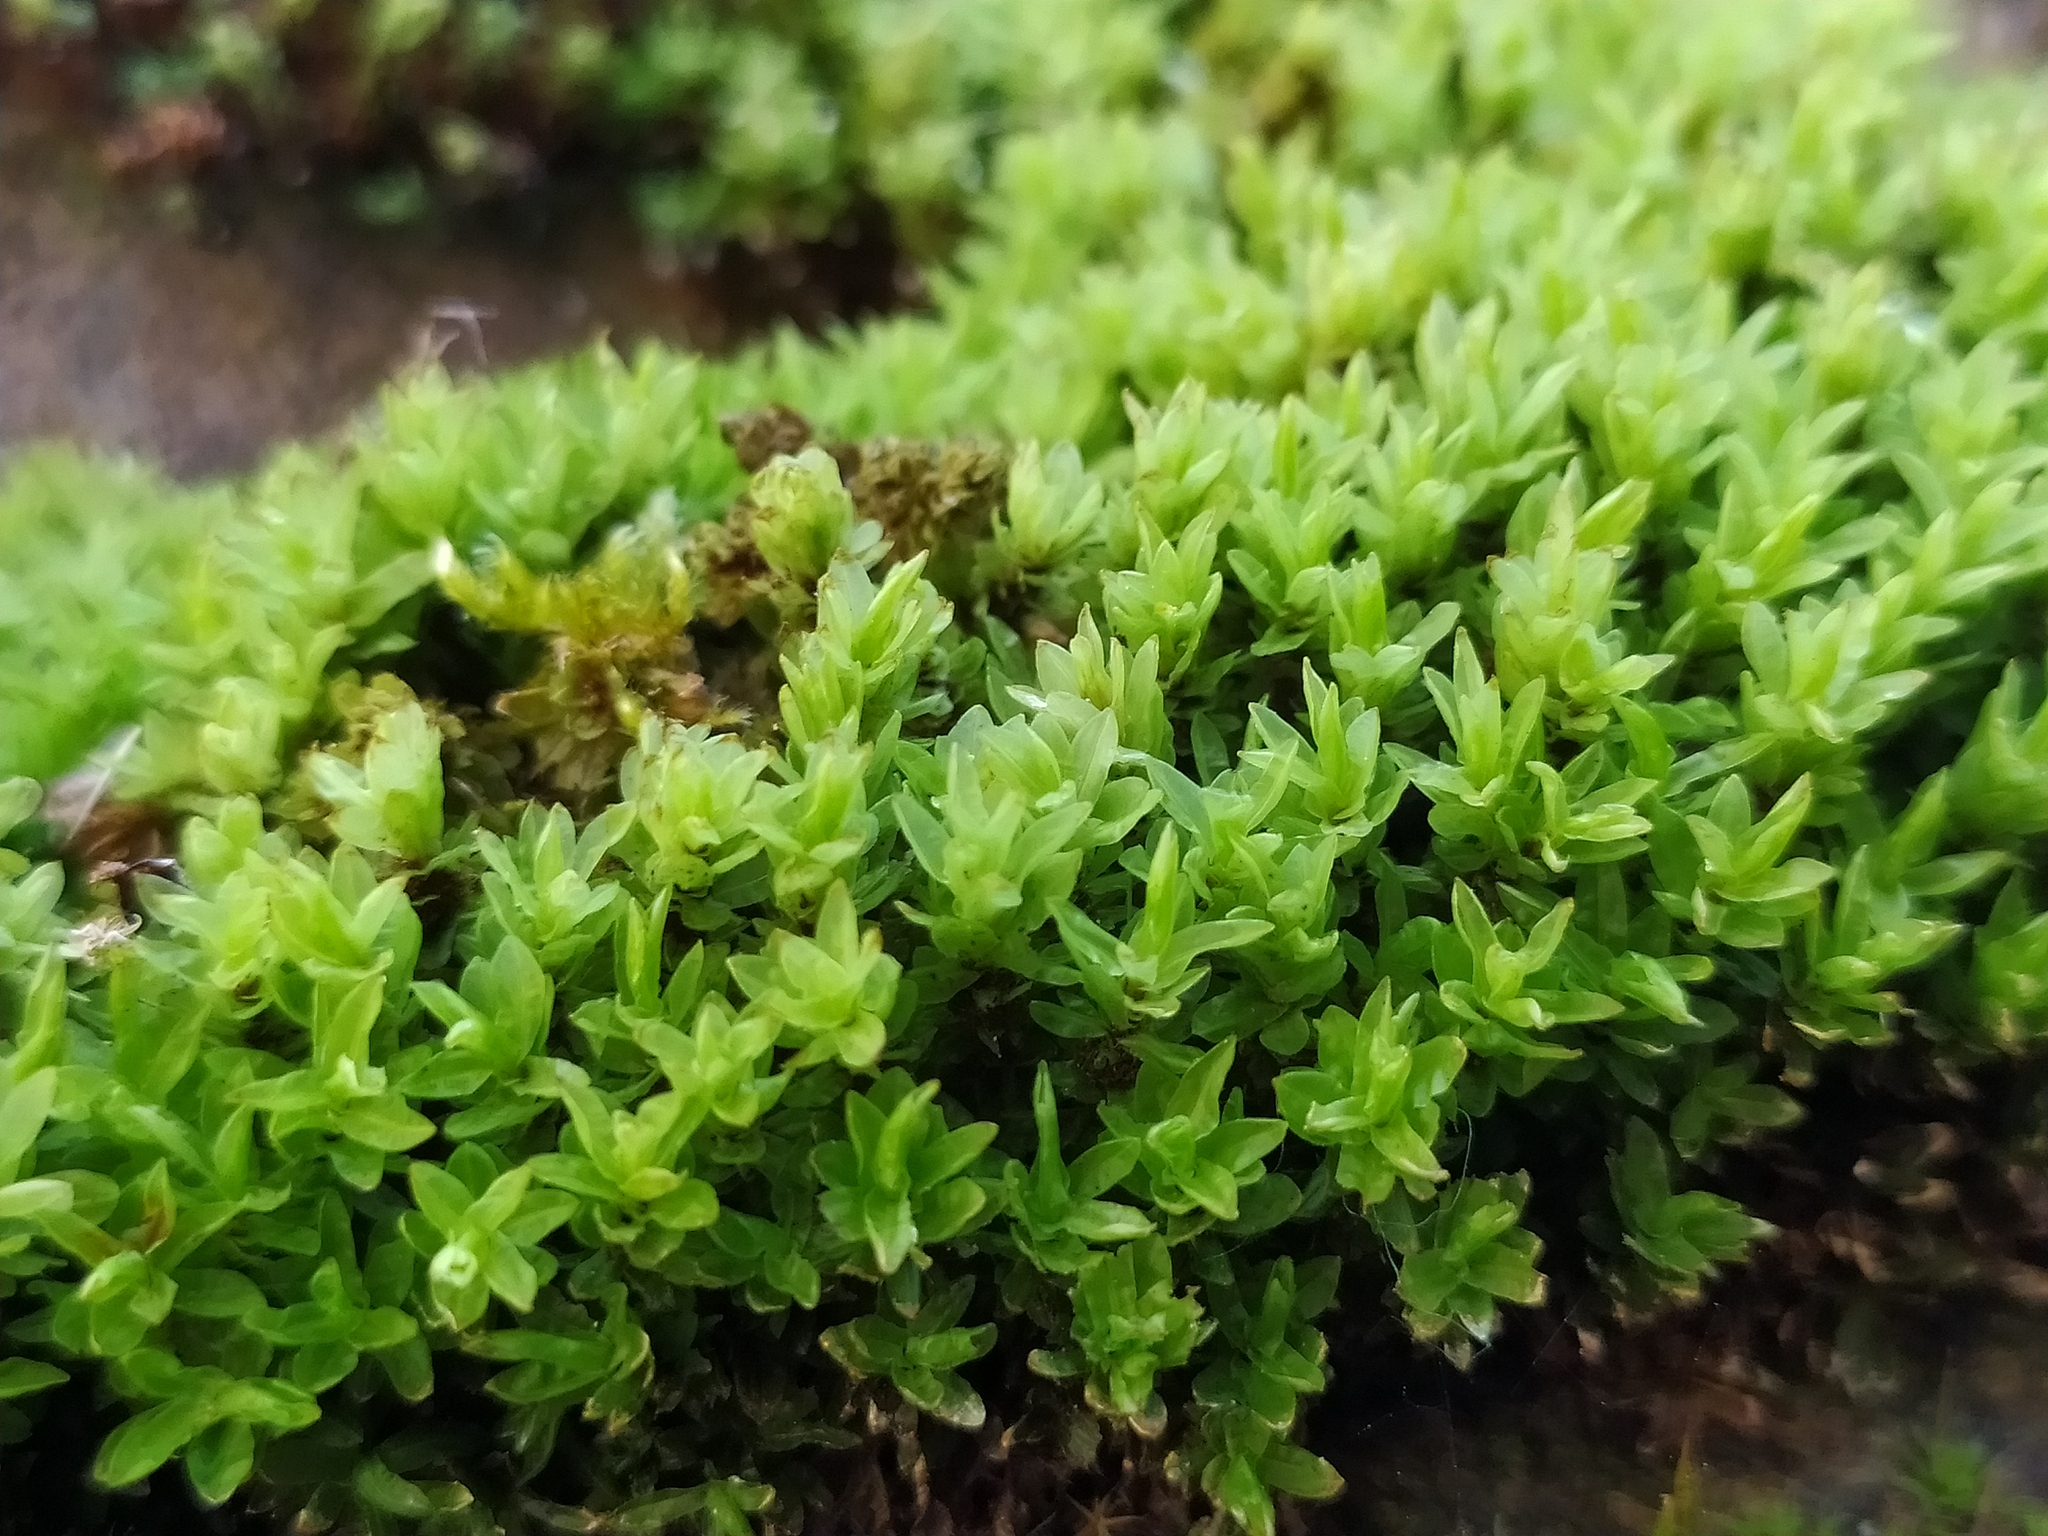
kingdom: Plantae
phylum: Bryophyta
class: Bryopsida
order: Encalyptales
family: Encalyptaceae
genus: Encalypta
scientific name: Encalypta streptocarpa
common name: Spiral extinguisher-moss
